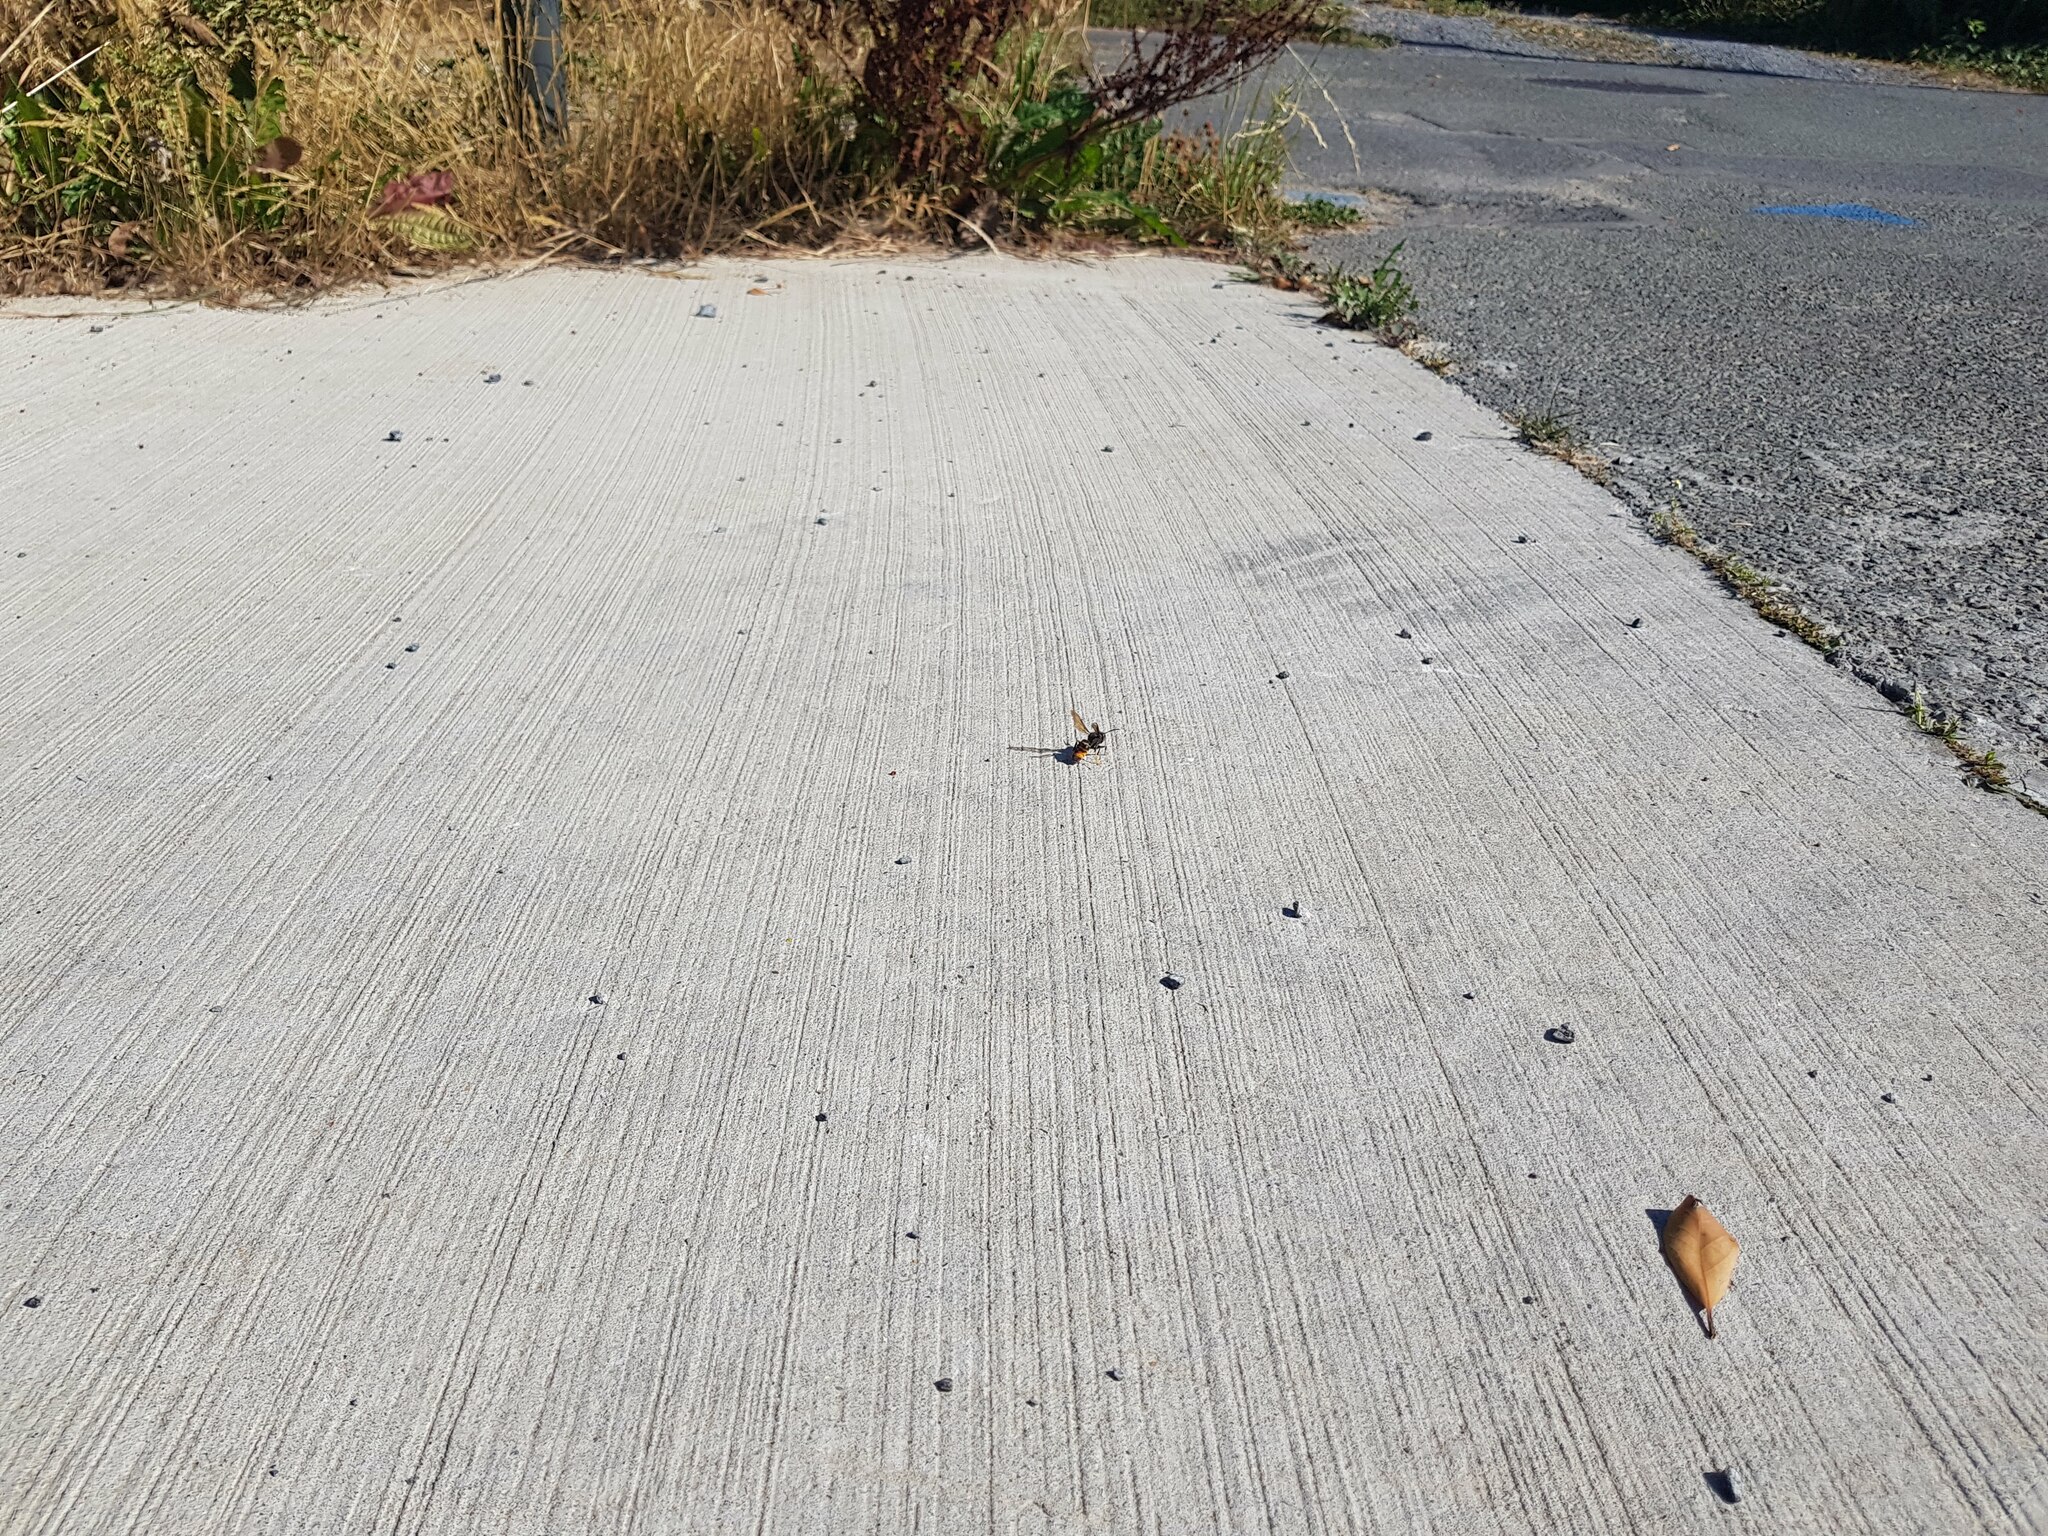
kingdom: Animalia
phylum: Arthropoda
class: Insecta
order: Hymenoptera
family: Vespidae
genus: Vespa
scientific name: Vespa velutina
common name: Asian hornet
